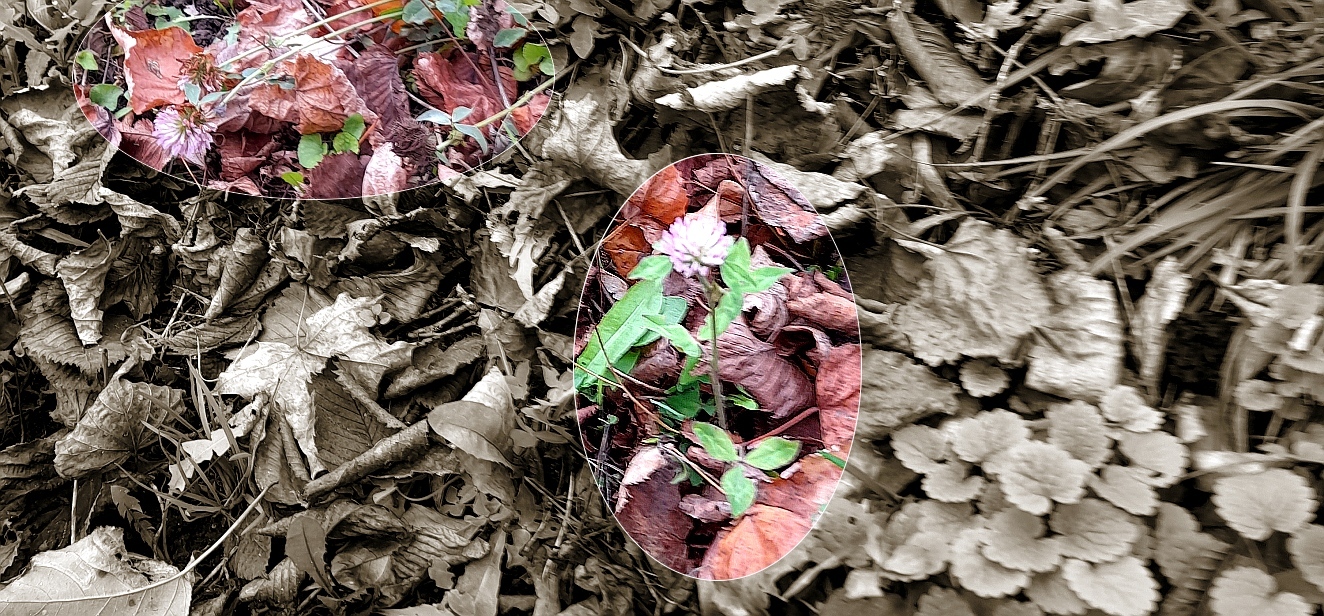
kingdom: Plantae
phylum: Tracheophyta
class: Magnoliopsida
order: Fabales
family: Fabaceae
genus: Trifolium
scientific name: Trifolium pratense
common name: Red clover
